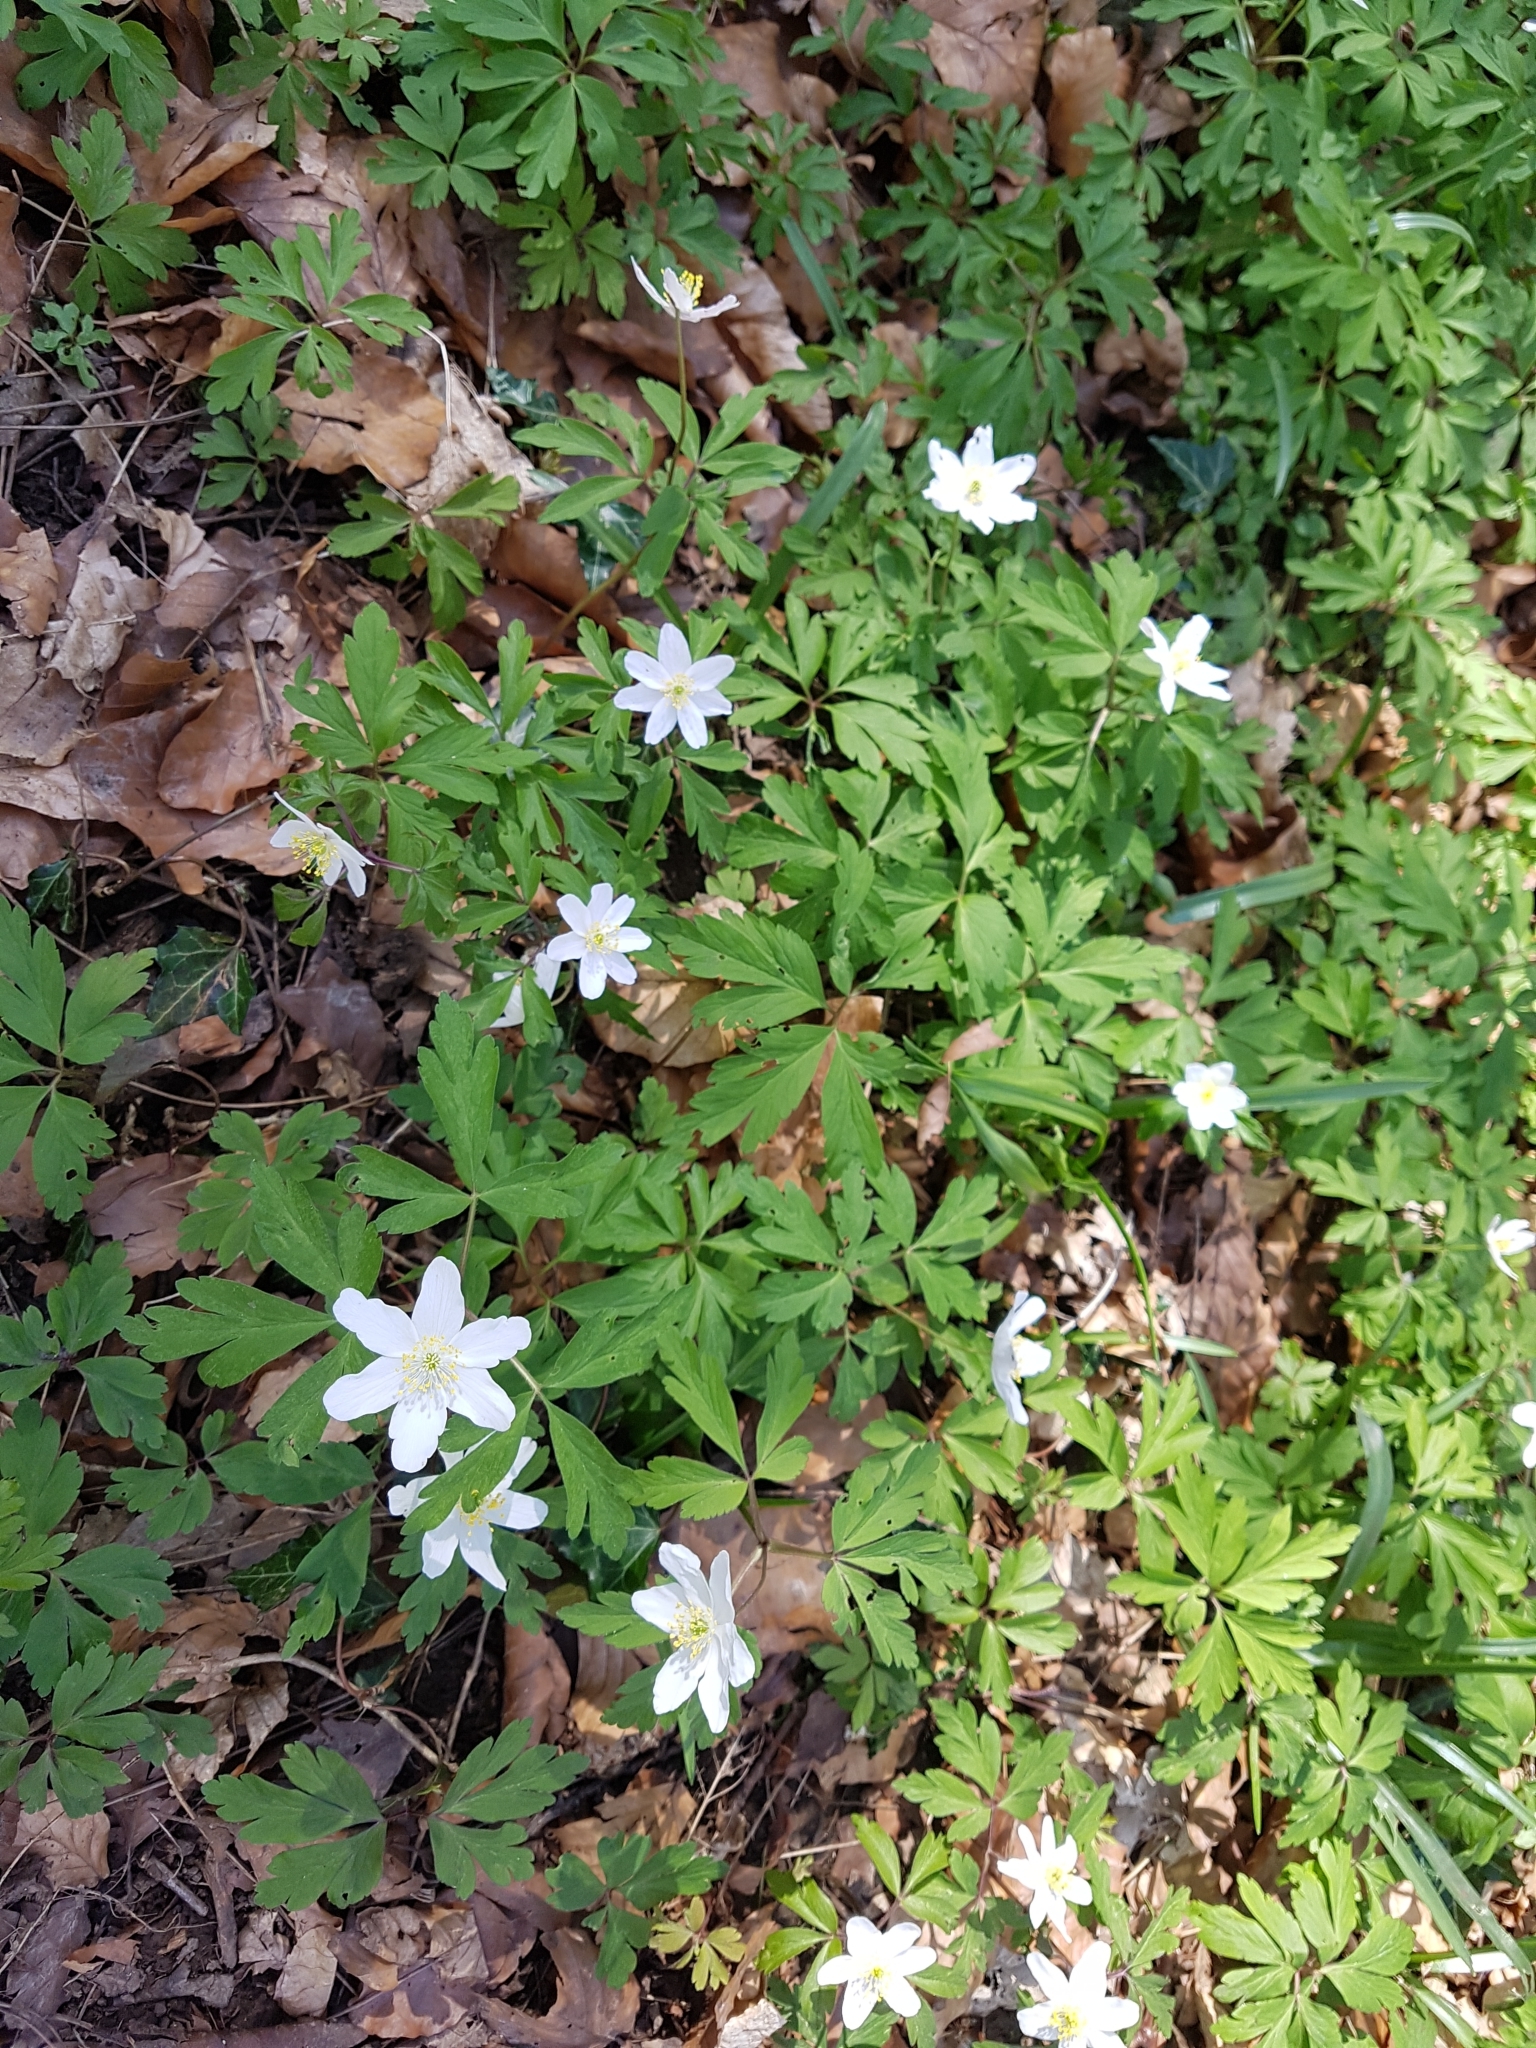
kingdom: Plantae
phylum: Tracheophyta
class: Magnoliopsida
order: Ranunculales
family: Ranunculaceae
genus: Anemone
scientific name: Anemone nemorosa
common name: Wood anemone
